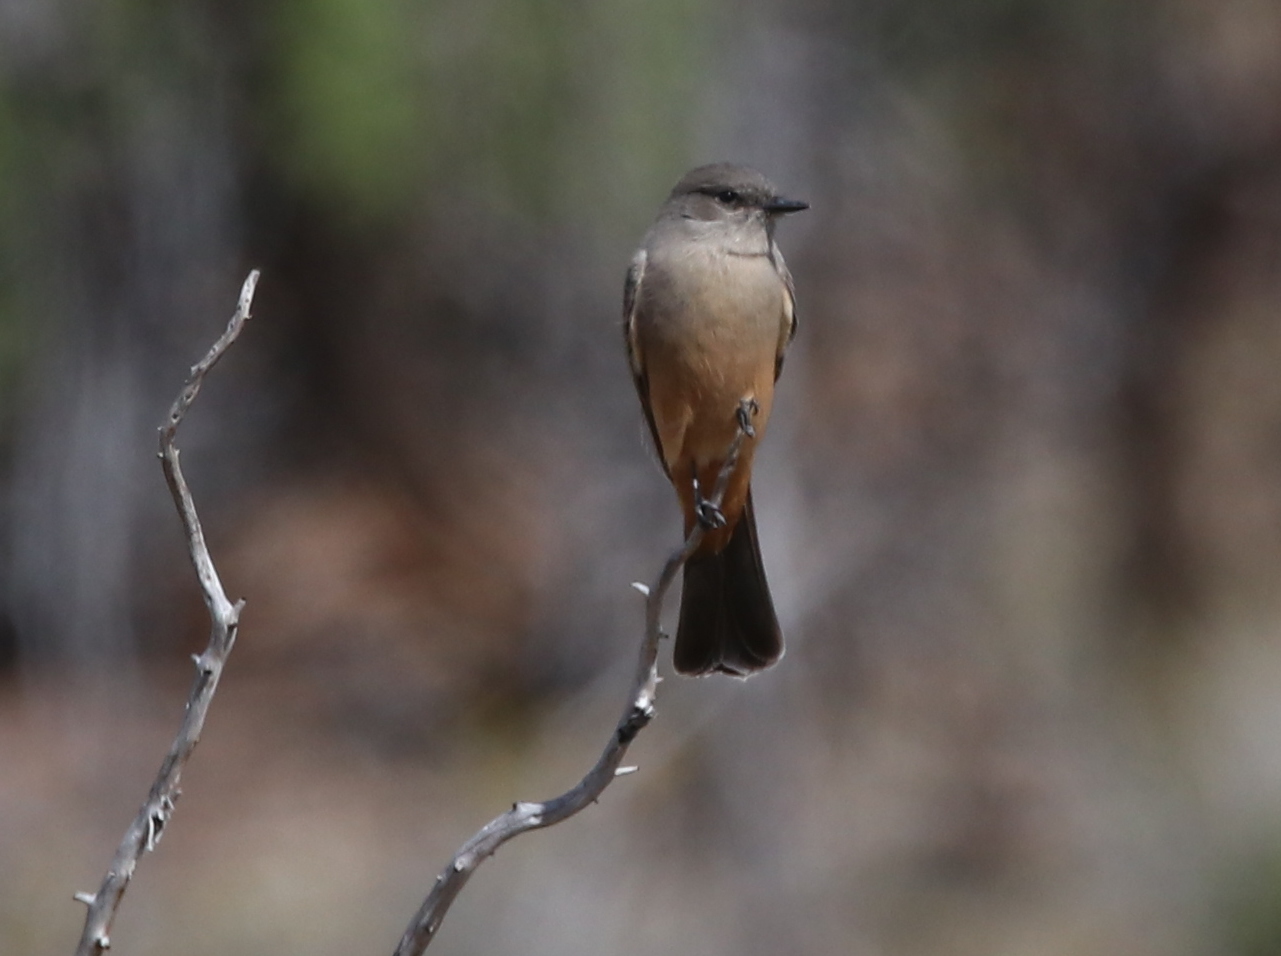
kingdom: Animalia
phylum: Chordata
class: Aves
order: Passeriformes
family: Tyrannidae
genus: Sayornis
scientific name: Sayornis saya
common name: Say's phoebe
